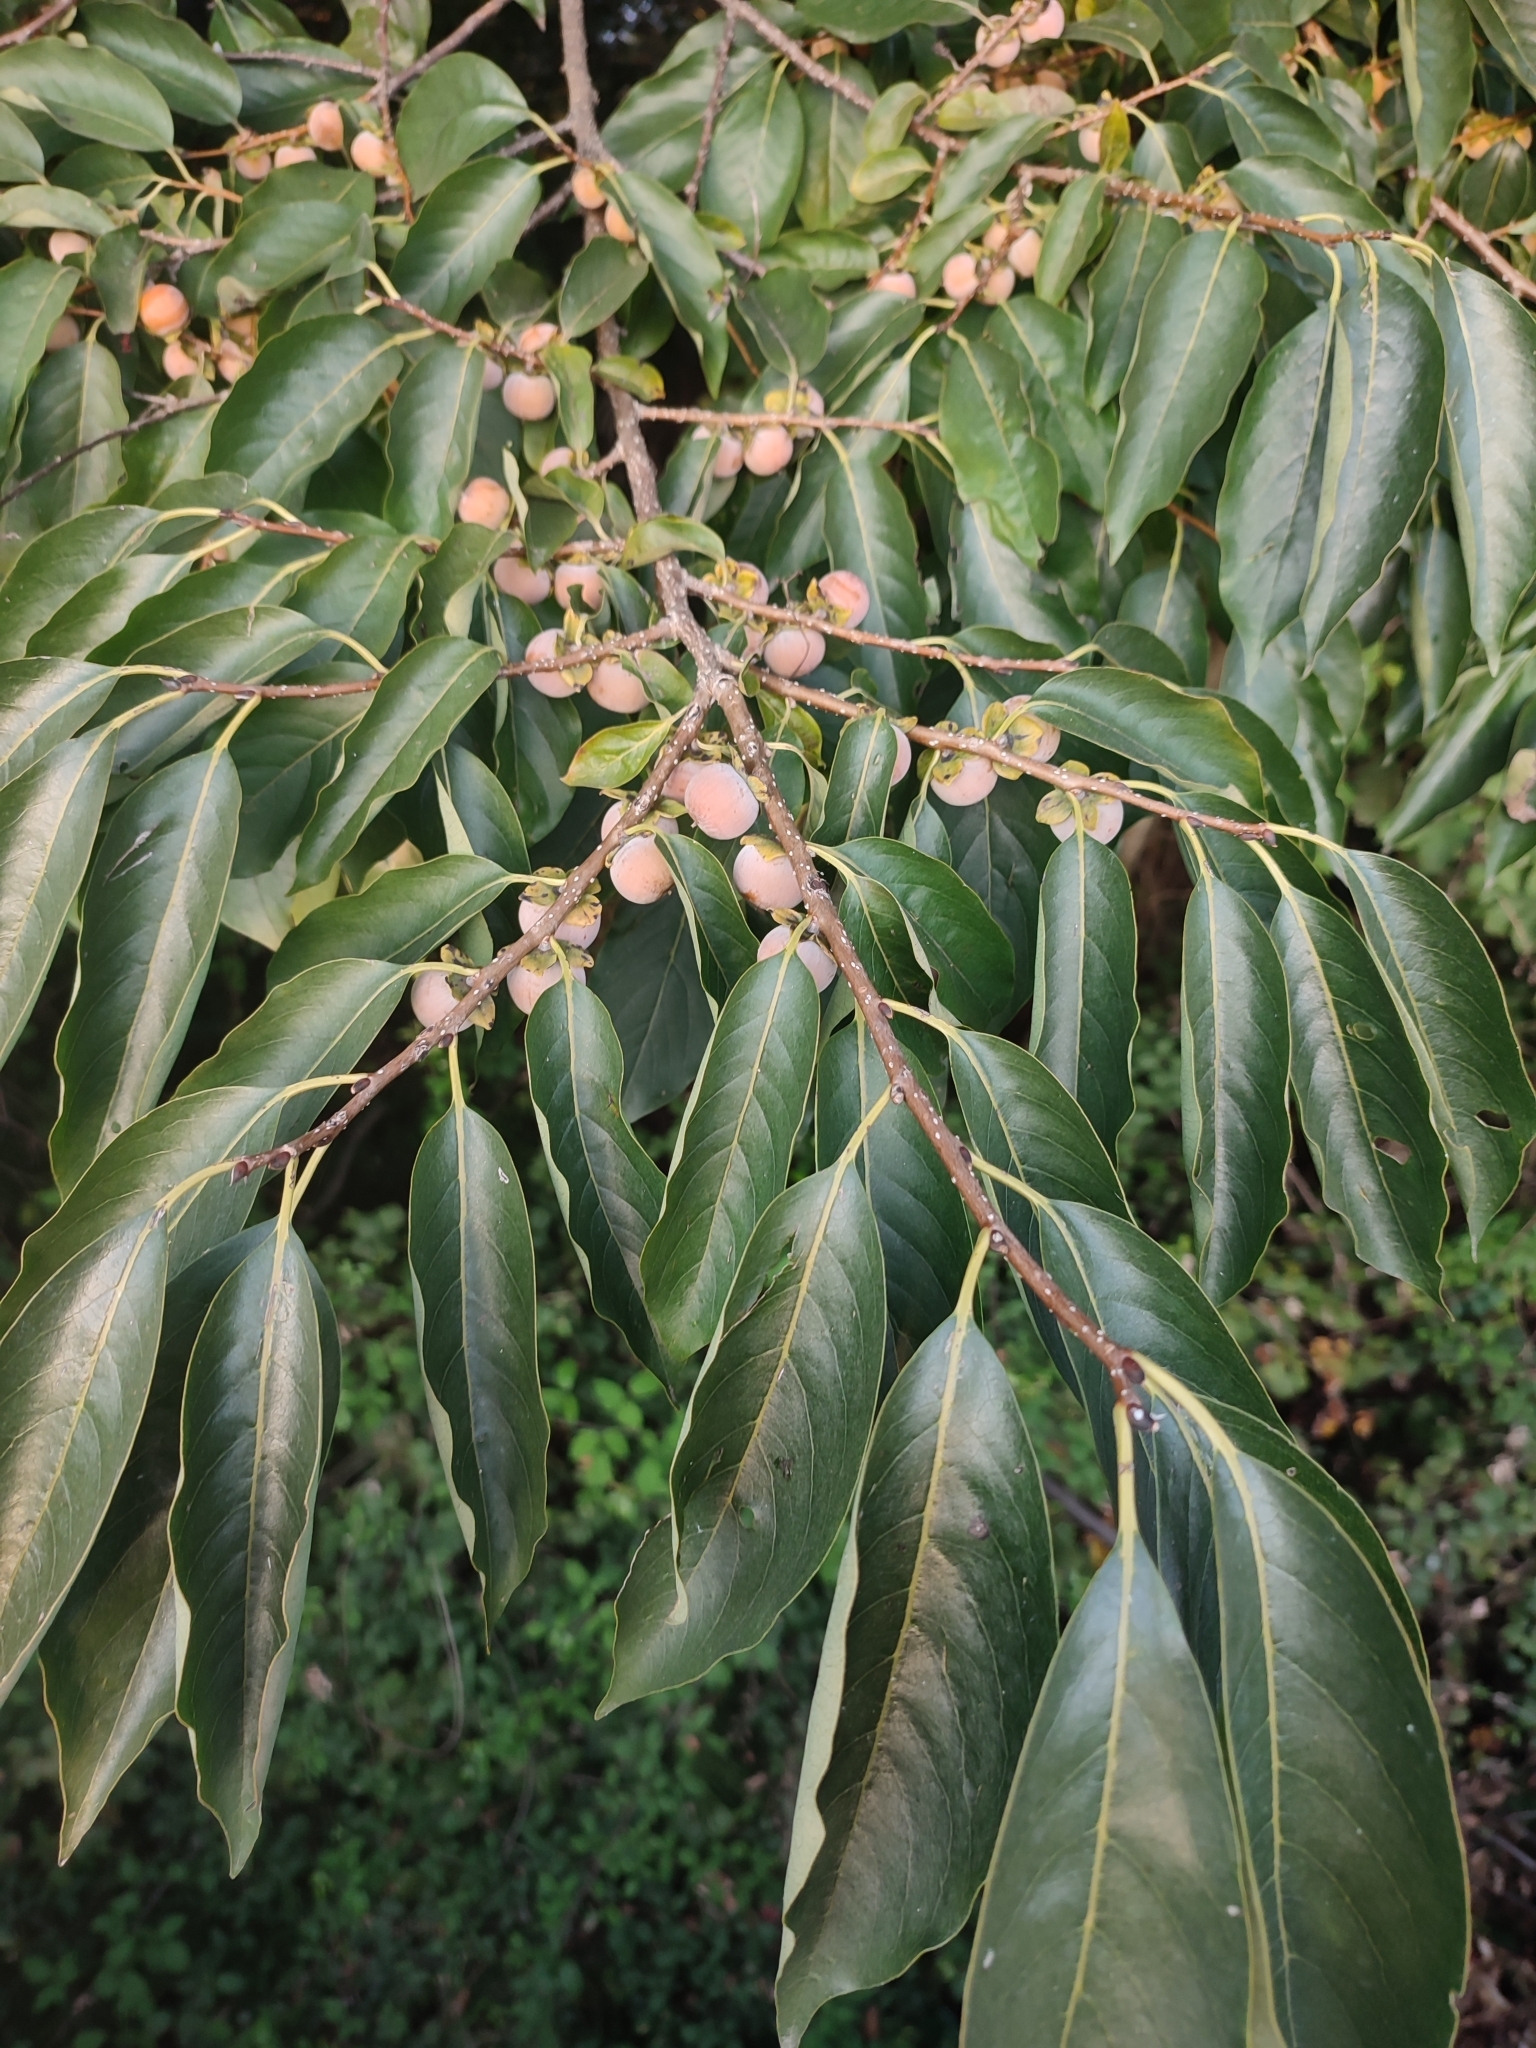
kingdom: Plantae
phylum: Tracheophyta
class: Magnoliopsida
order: Ericales
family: Ebenaceae
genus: Diospyros
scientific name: Diospyros lotus
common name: Date-plum
